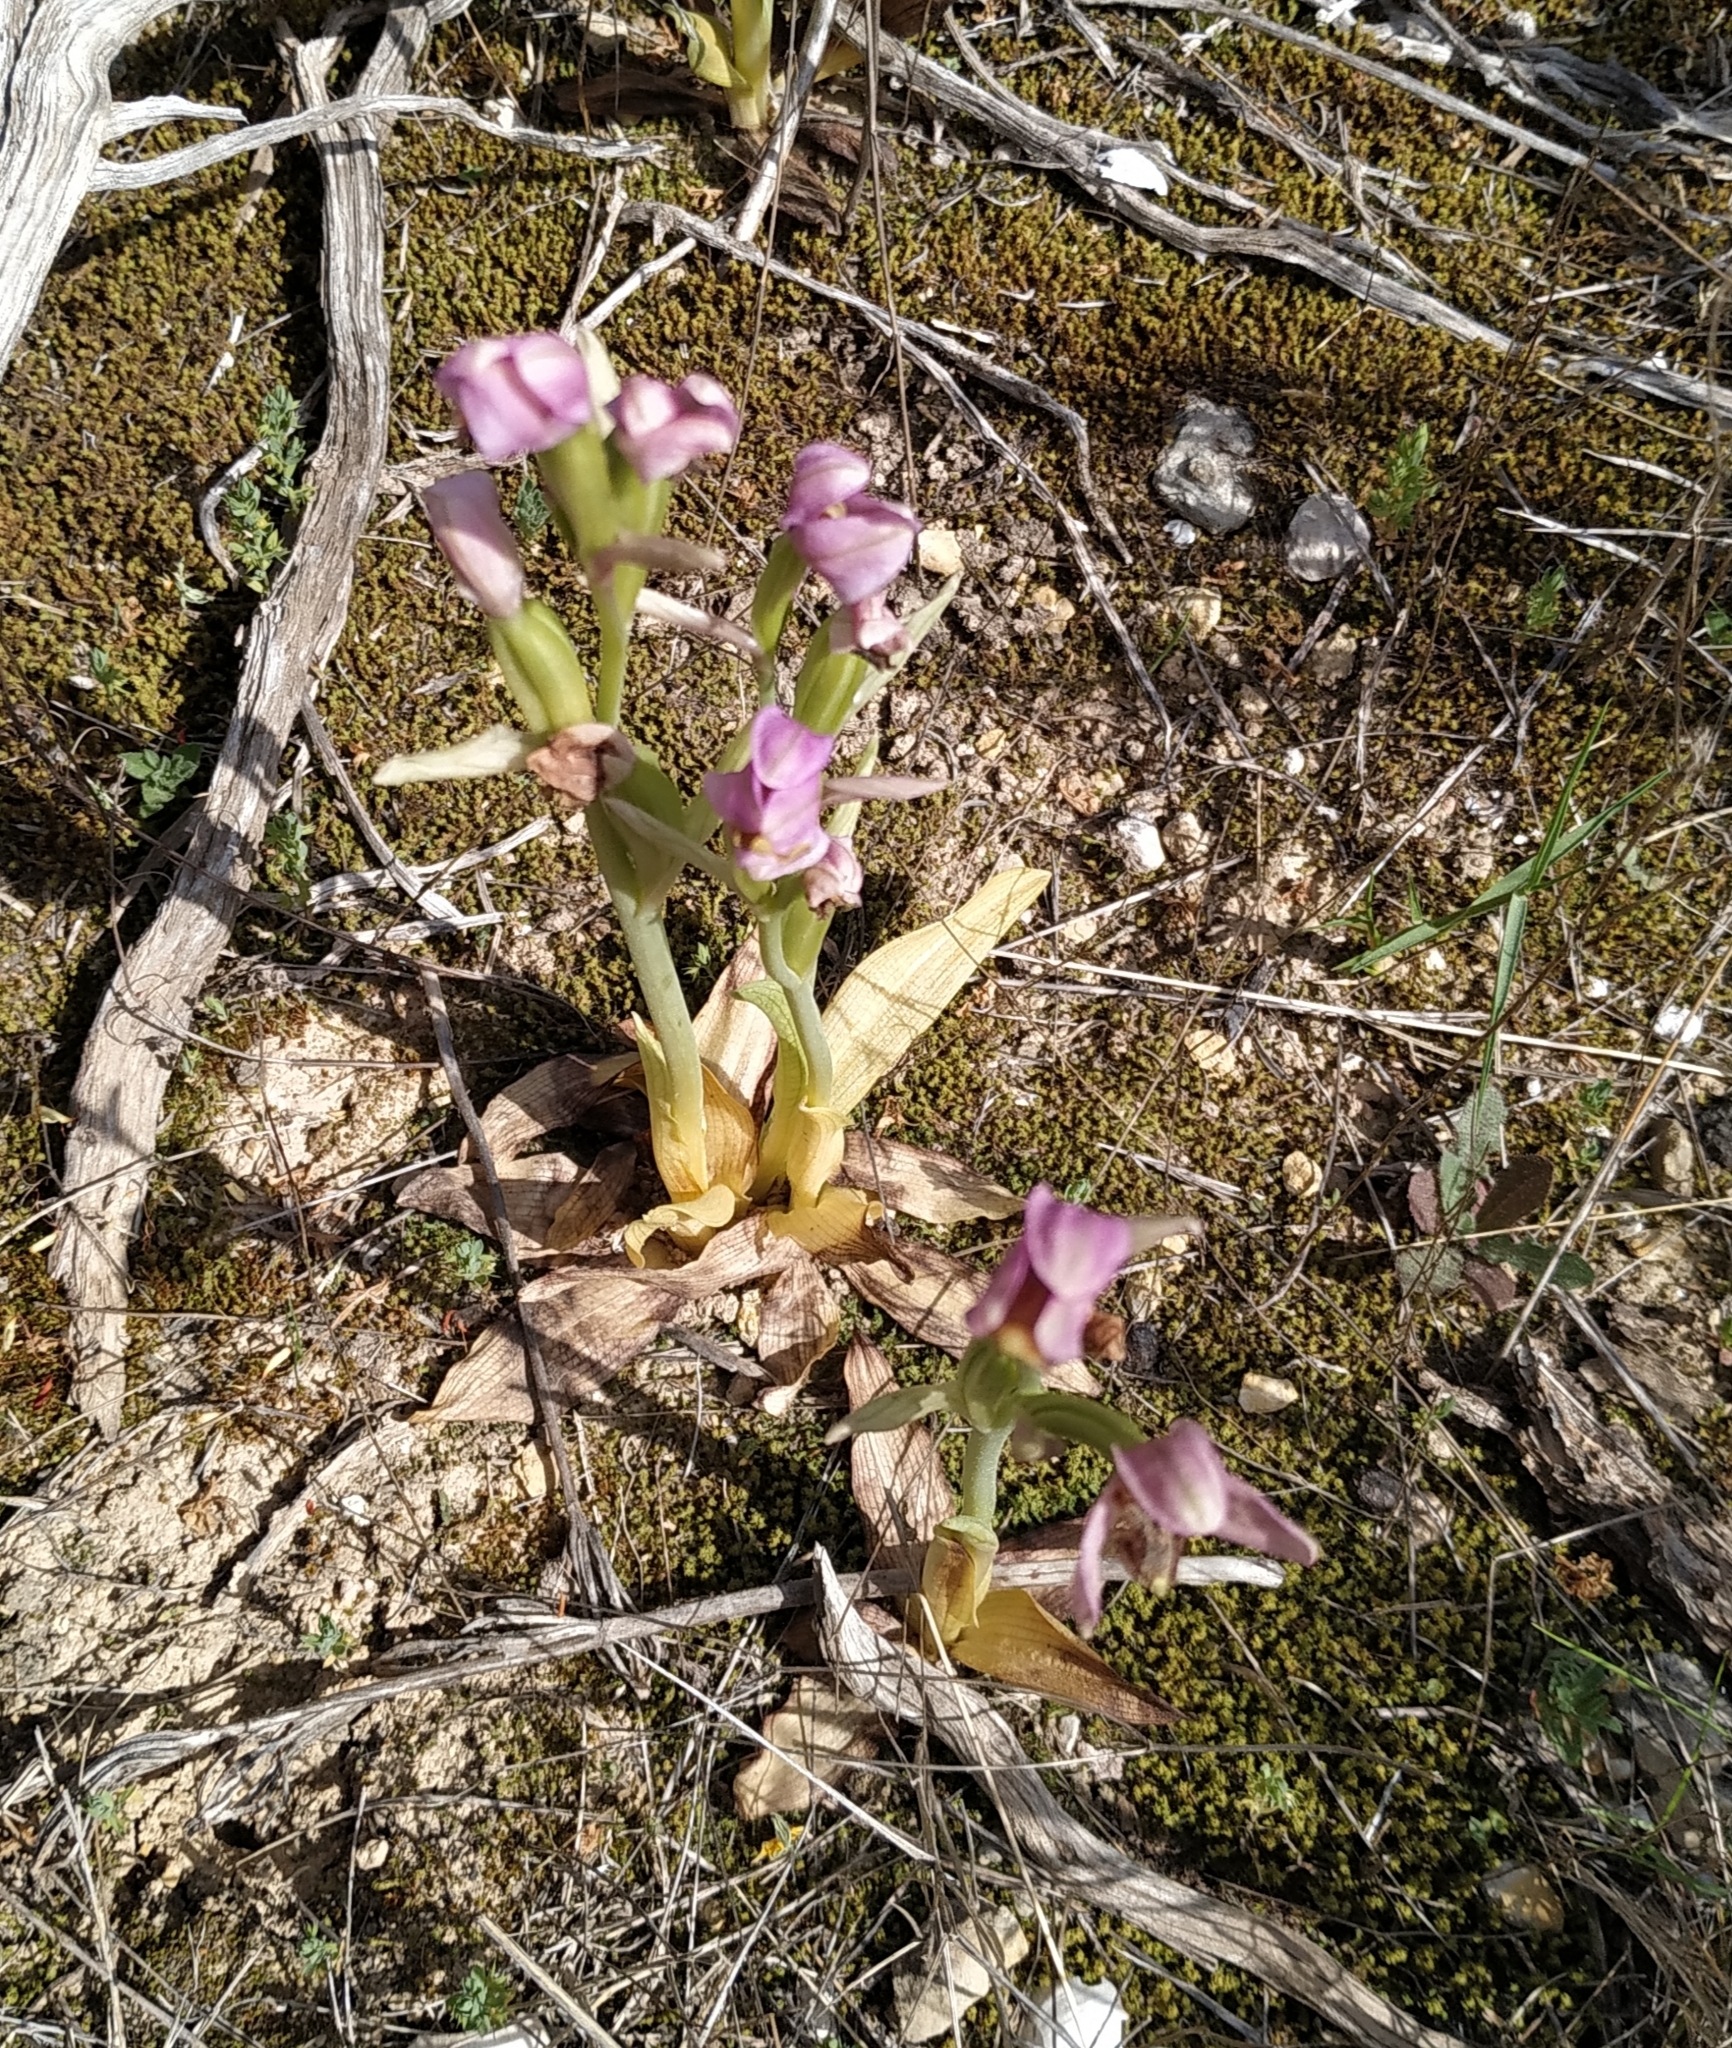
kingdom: Plantae
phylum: Tracheophyta
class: Liliopsida
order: Asparagales
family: Orchidaceae
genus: Ophrys
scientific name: Ophrys tenthredinifera
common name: Sawfly orchid
